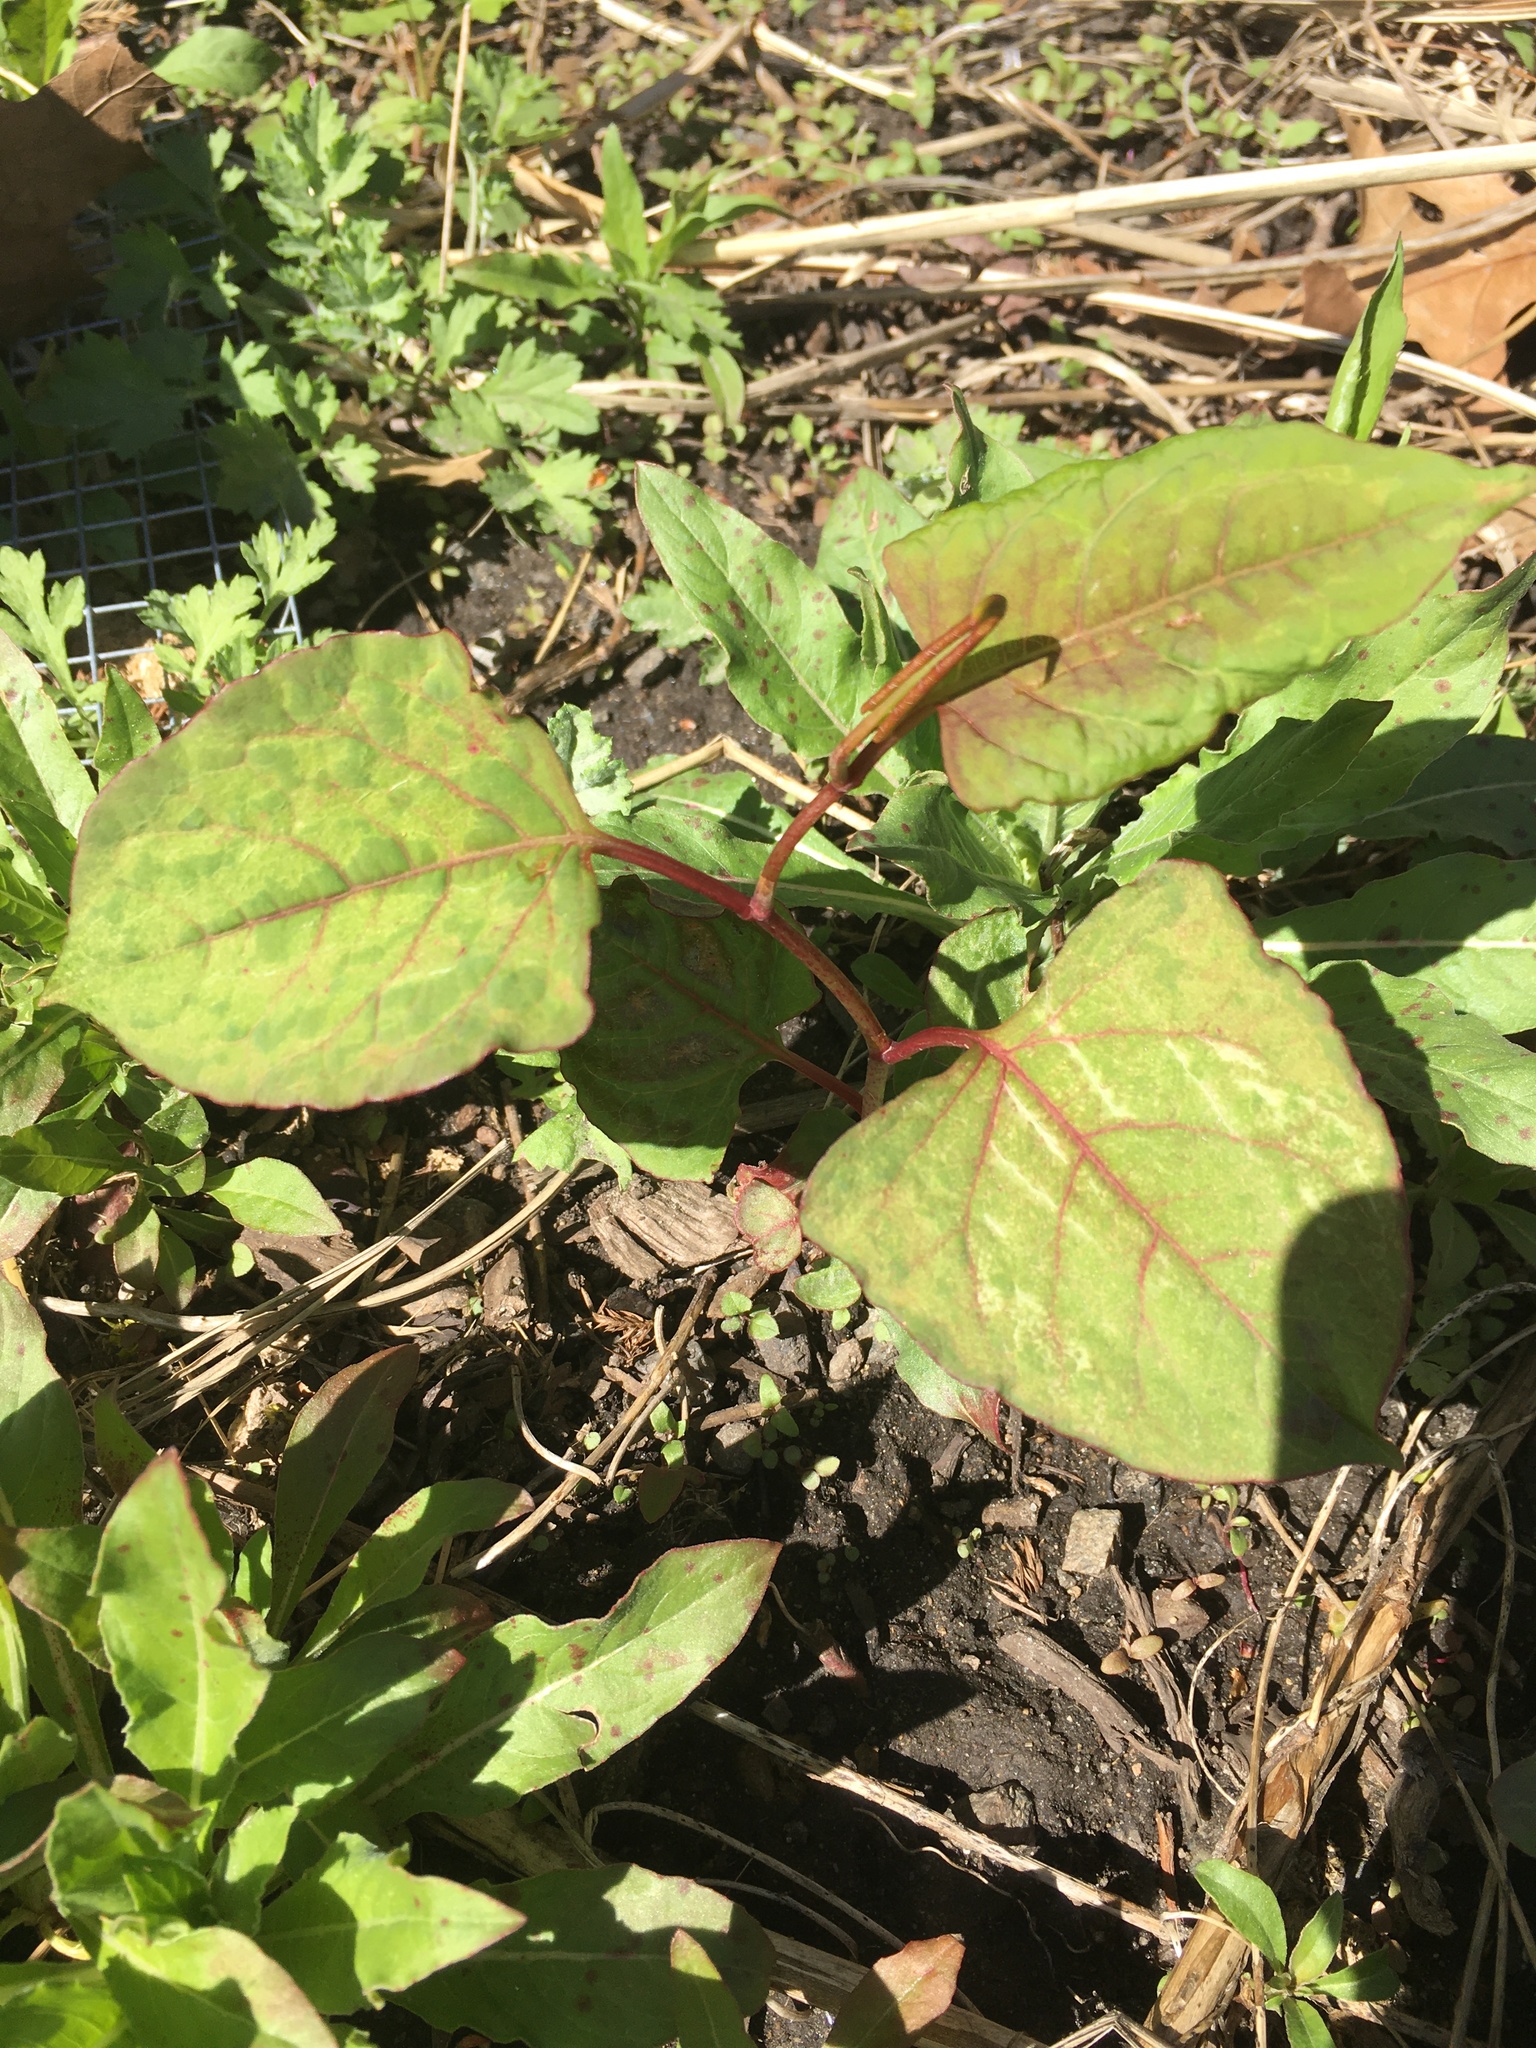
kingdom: Plantae
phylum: Tracheophyta
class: Magnoliopsida
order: Caryophyllales
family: Polygonaceae
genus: Reynoutria
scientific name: Reynoutria japonica
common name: Japanese knotweed
